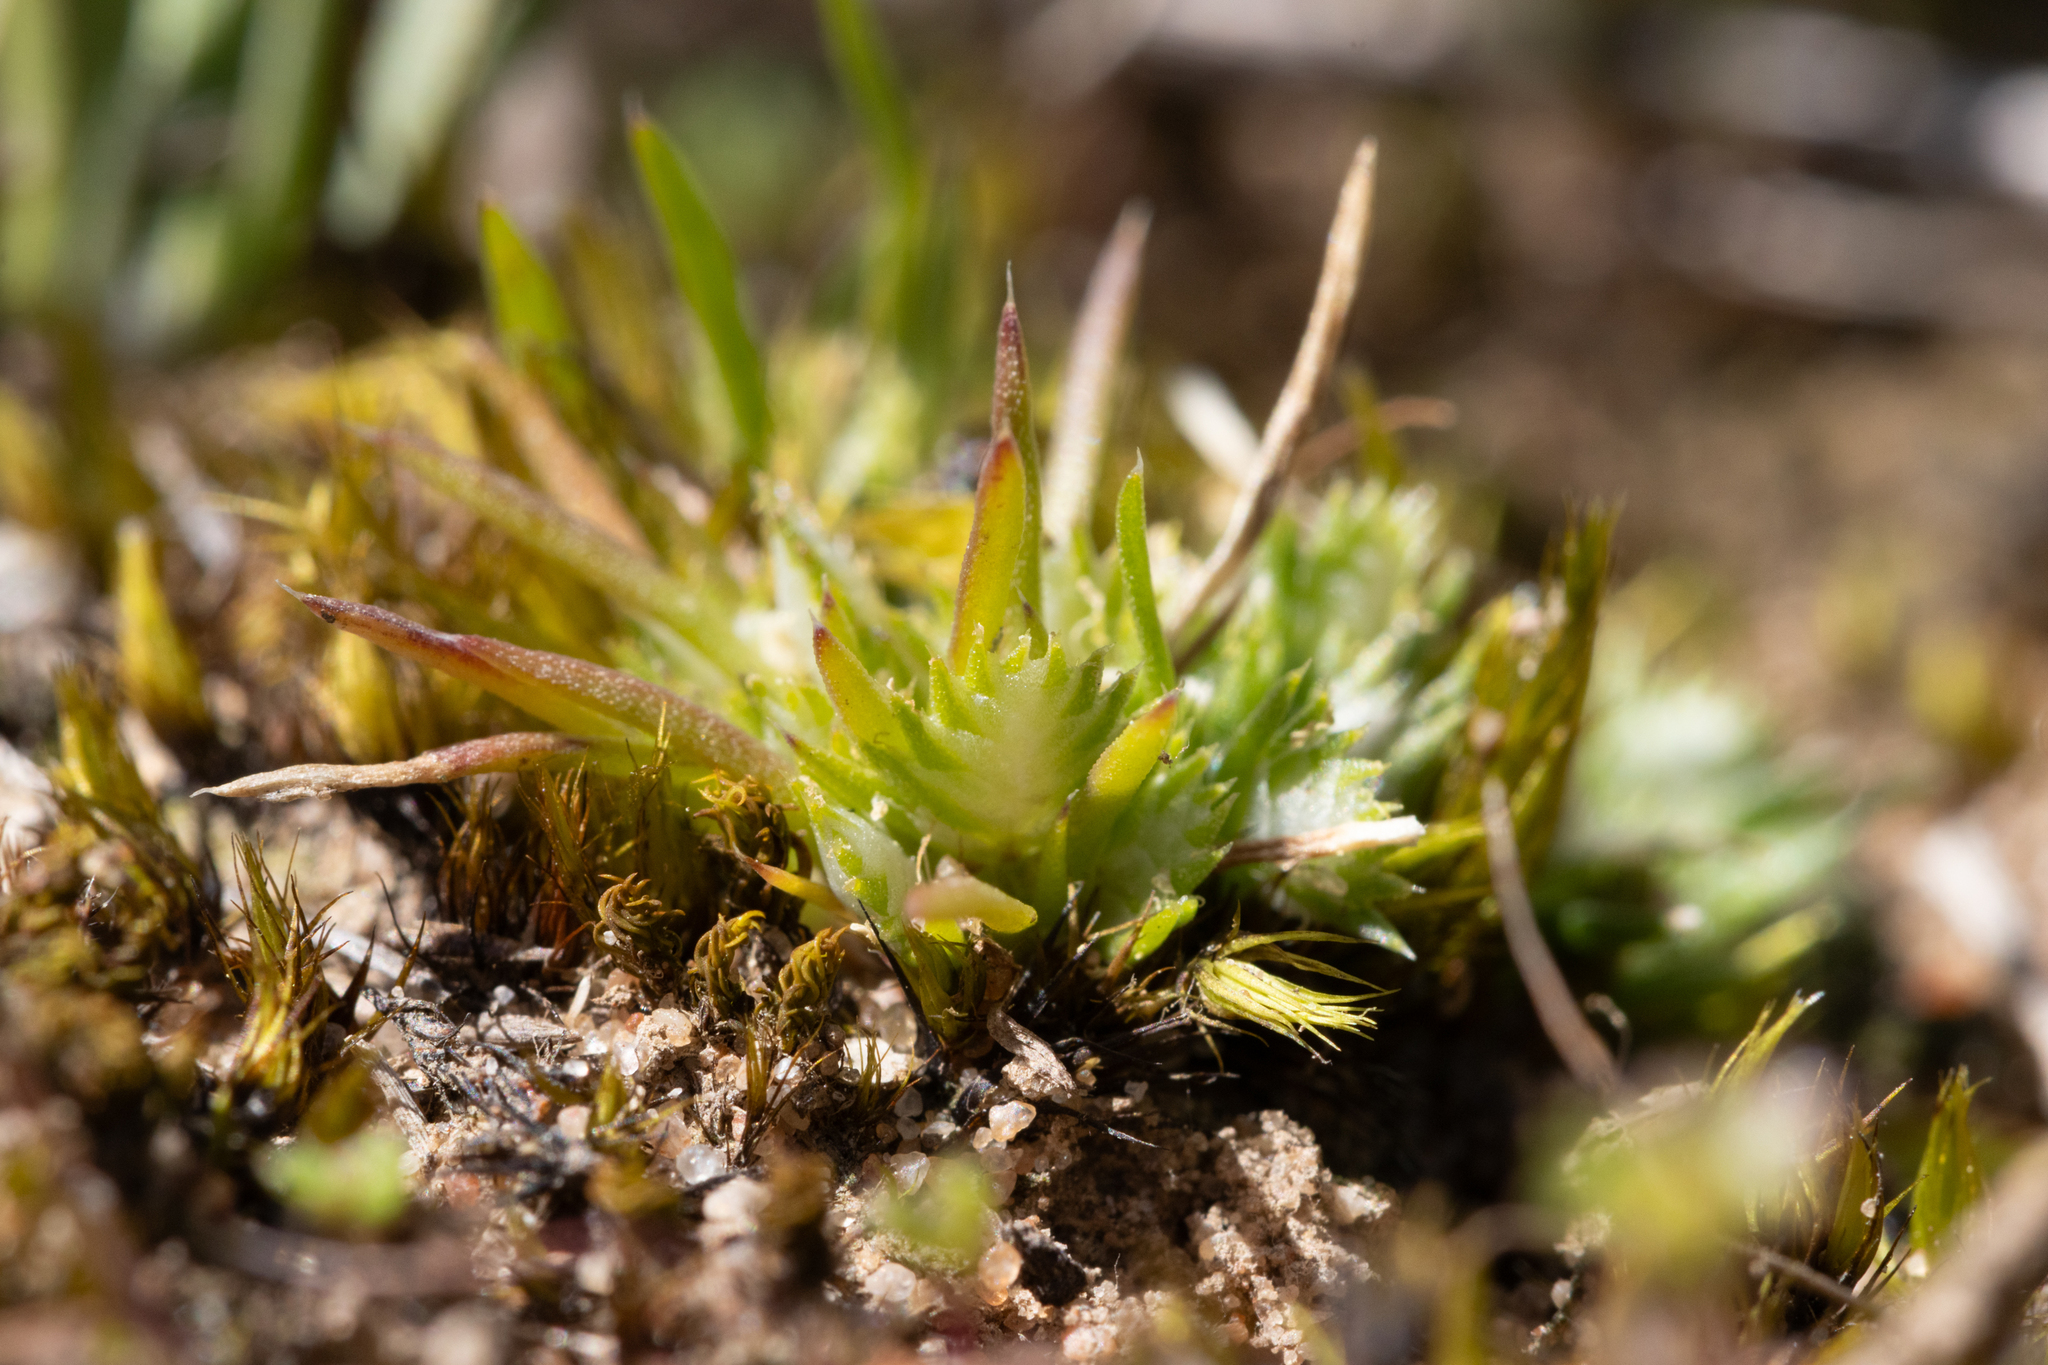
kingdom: Plantae
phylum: Tracheophyta
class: Liliopsida
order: Poales
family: Restionaceae
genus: Aphelia
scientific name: Aphelia pumilio
